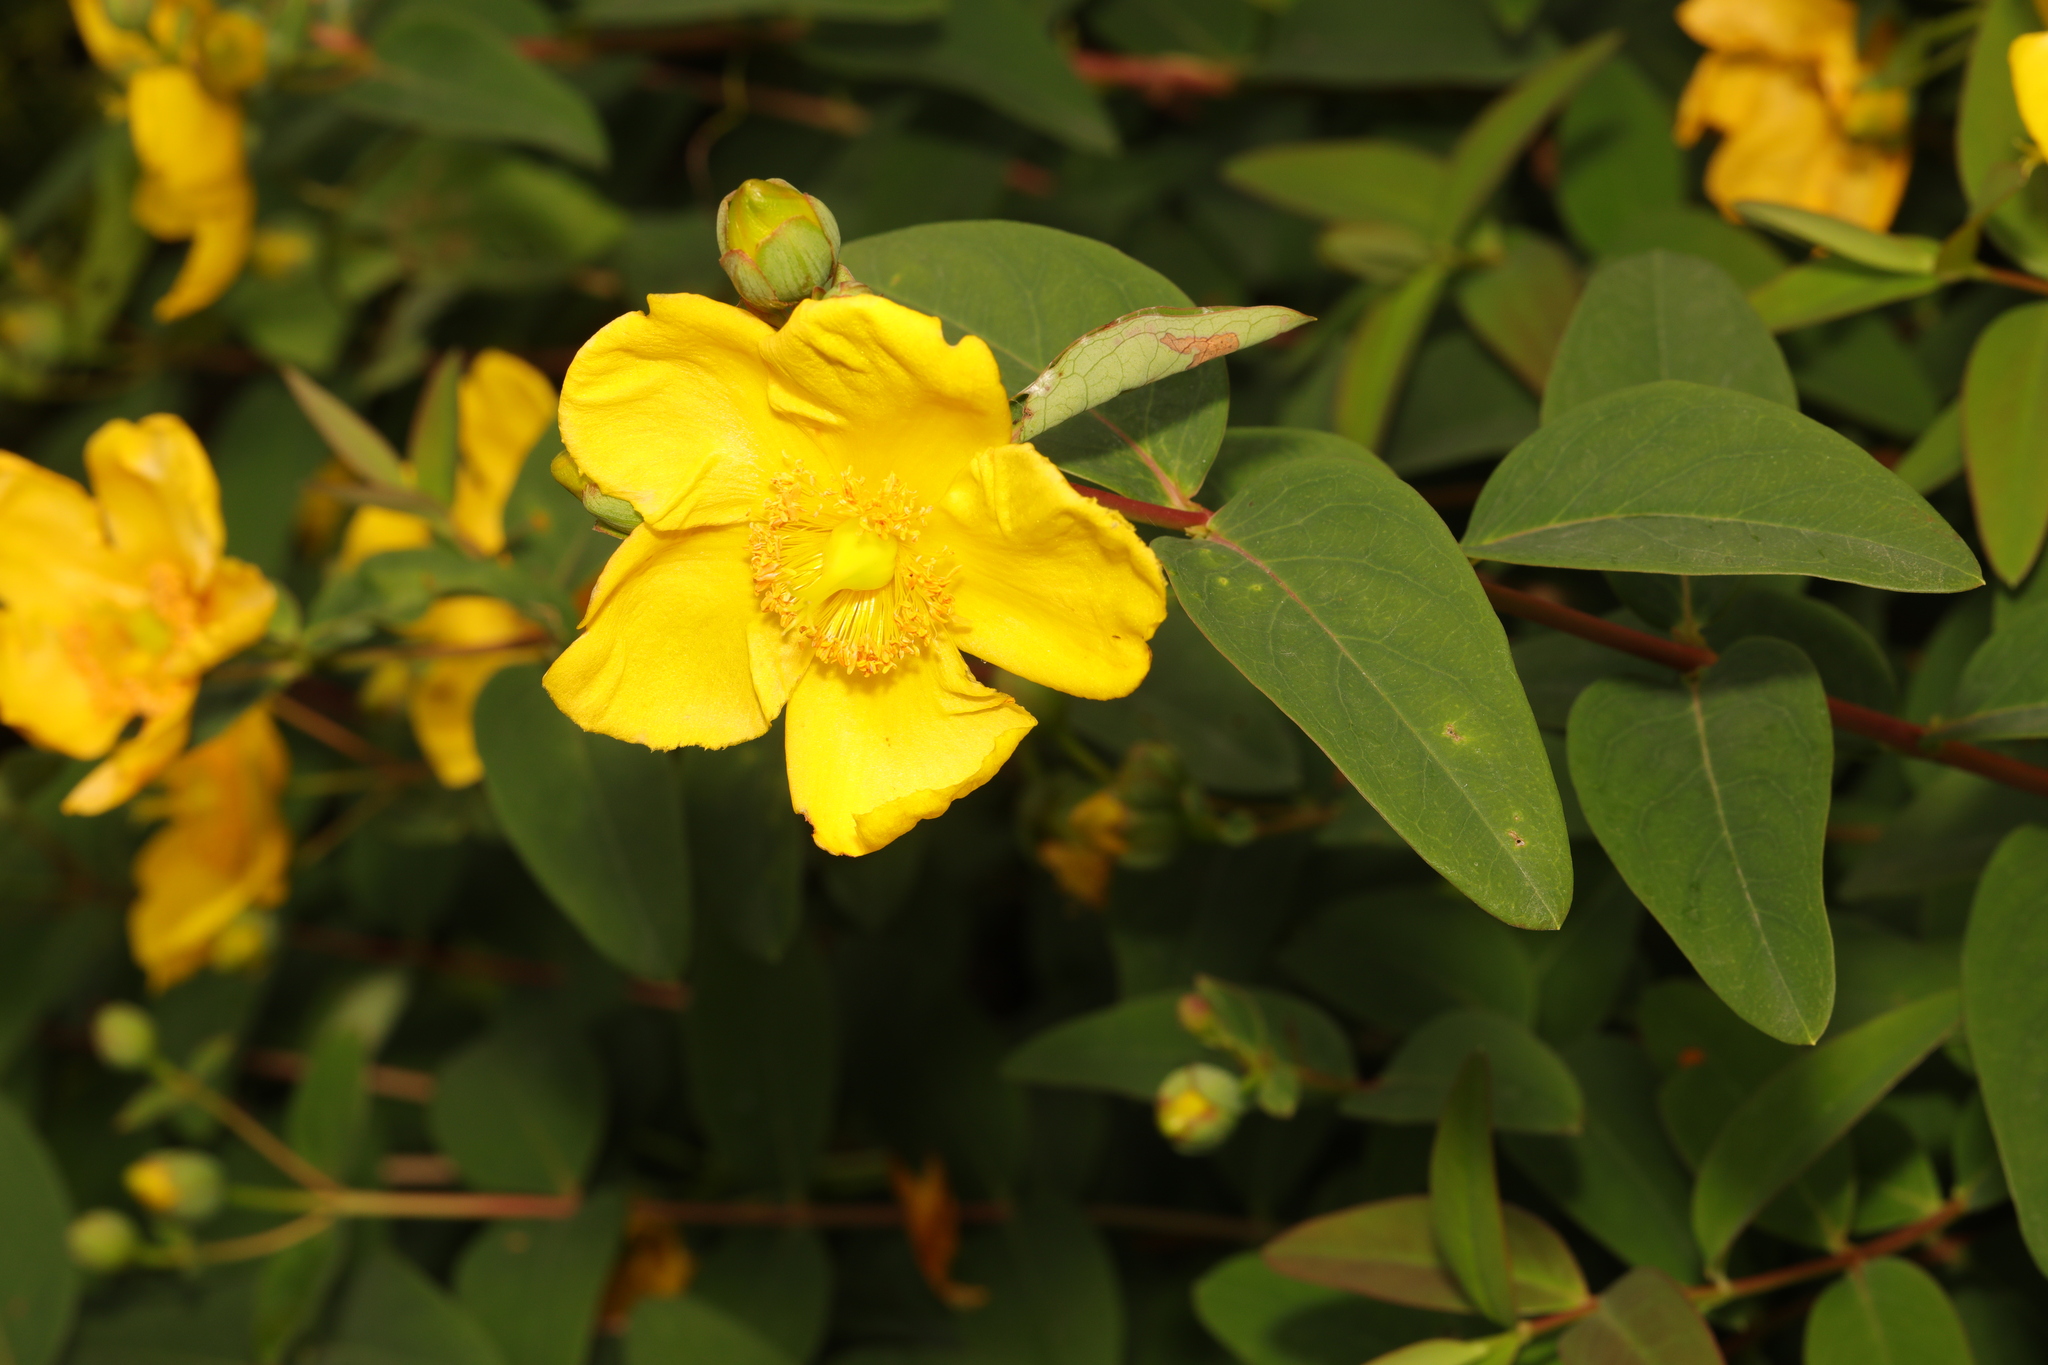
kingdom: Plantae
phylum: Tracheophyta
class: Magnoliopsida
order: Malpighiales
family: Hypericaceae
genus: Hypericum
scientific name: Hypericum hidcoteense
